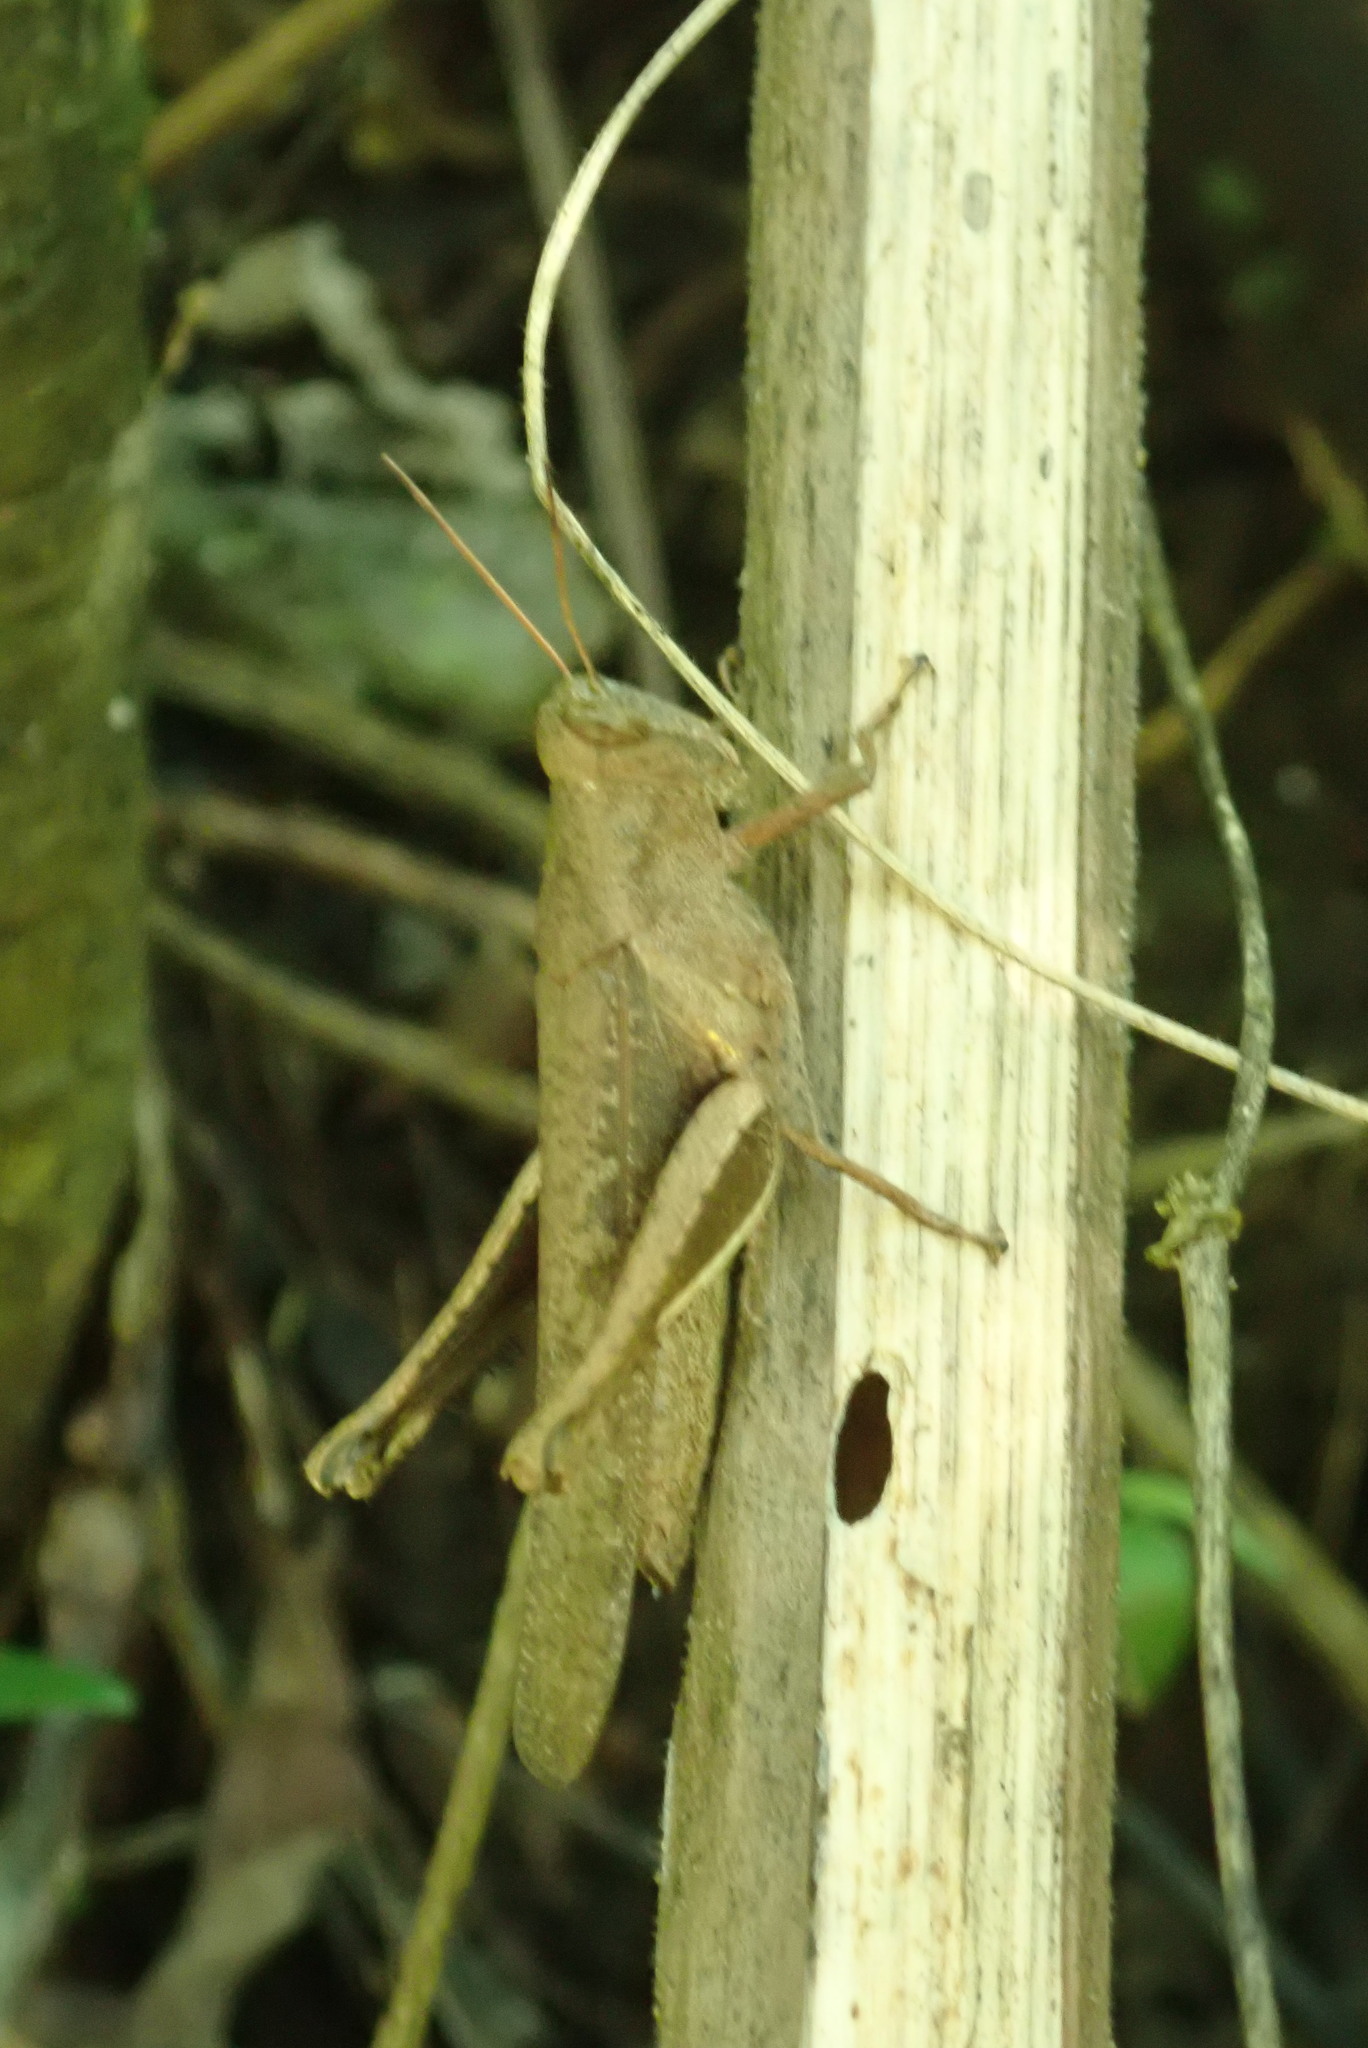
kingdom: Animalia
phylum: Arthropoda
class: Insecta
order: Orthoptera
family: Acrididae
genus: Abracris
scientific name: Abracris flavolineata
